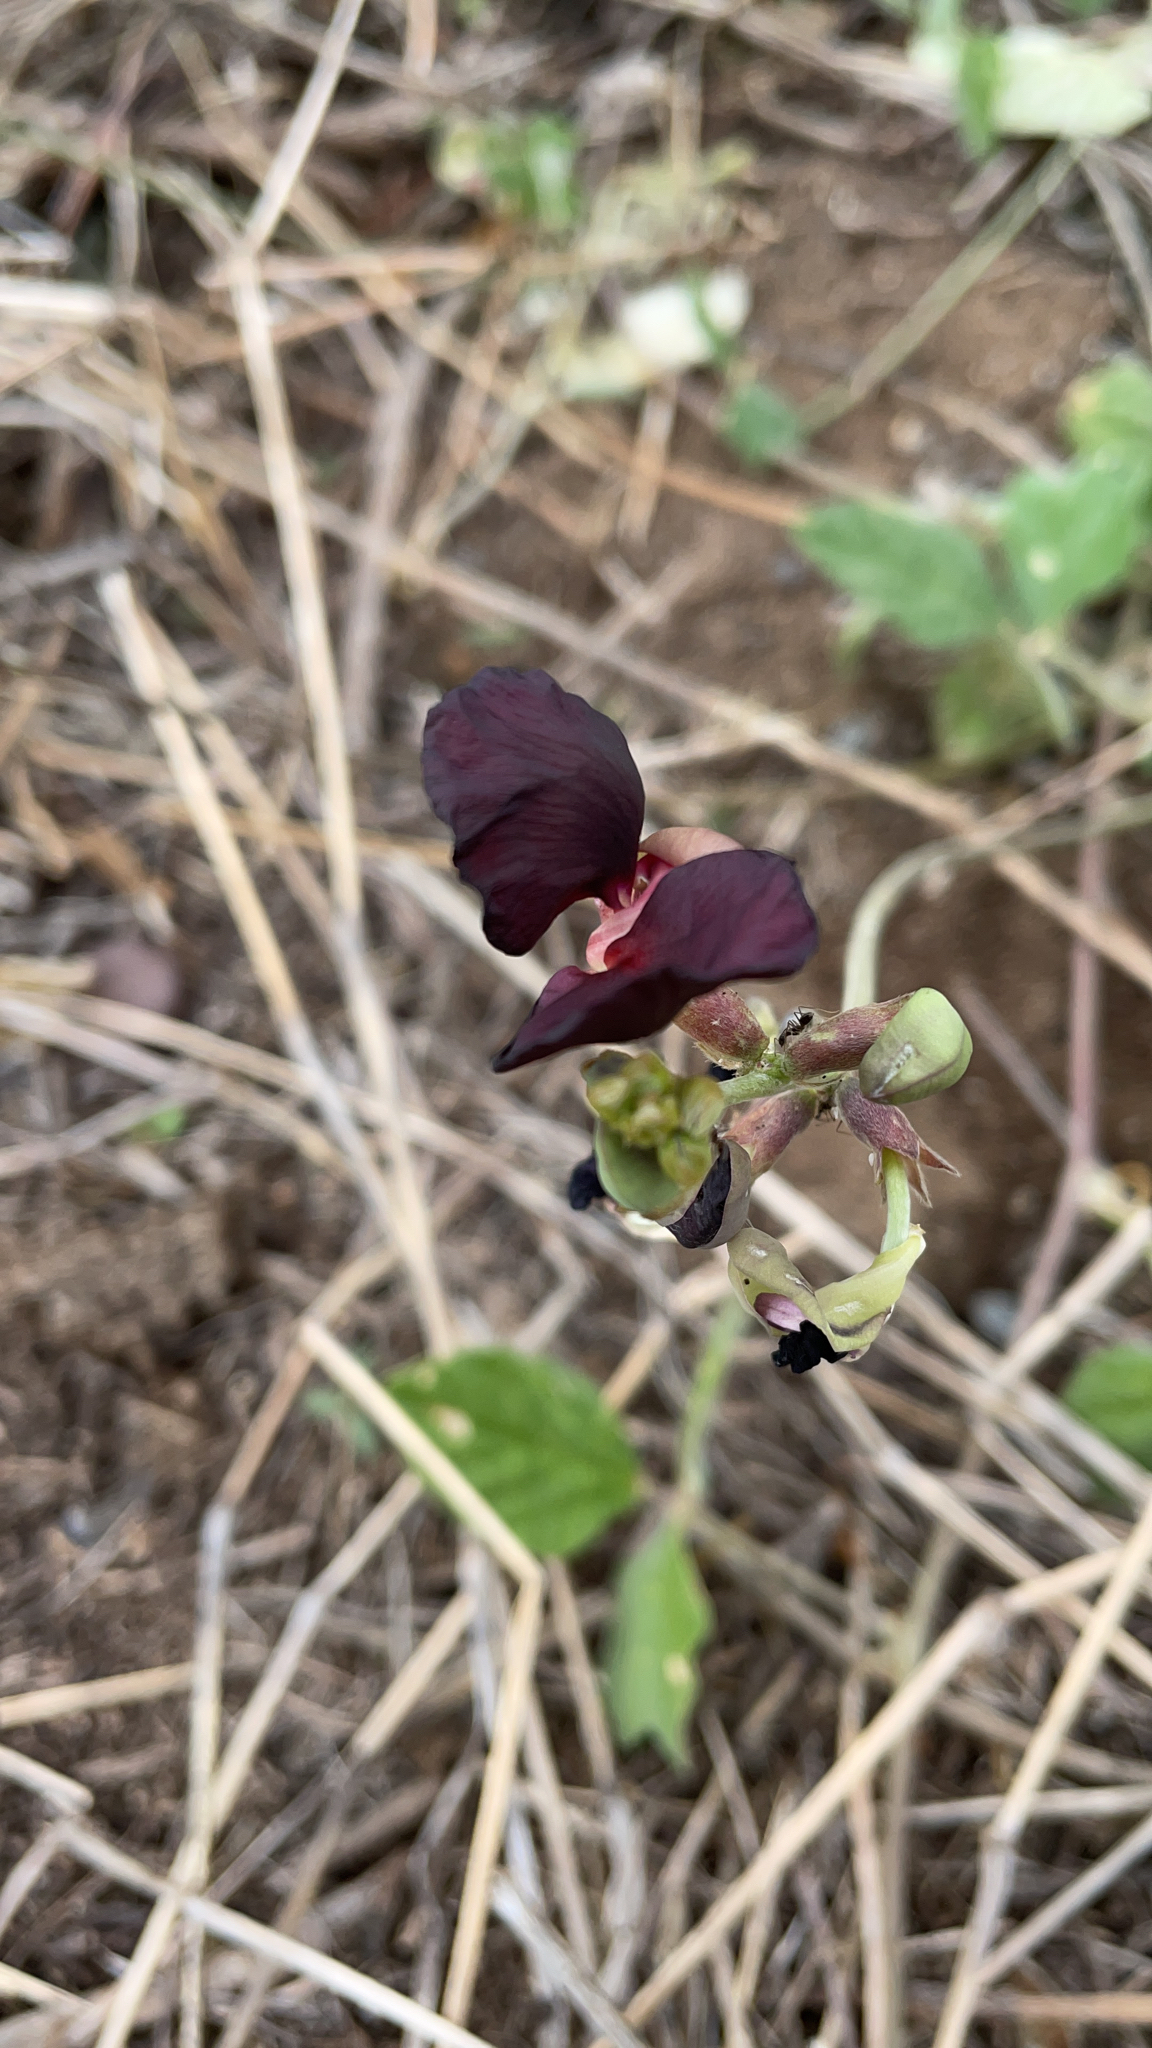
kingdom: Plantae
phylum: Tracheophyta
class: Magnoliopsida
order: Fabales
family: Fabaceae
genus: Macroptilium
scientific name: Macroptilium atropurpureum
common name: Purple bushbean
